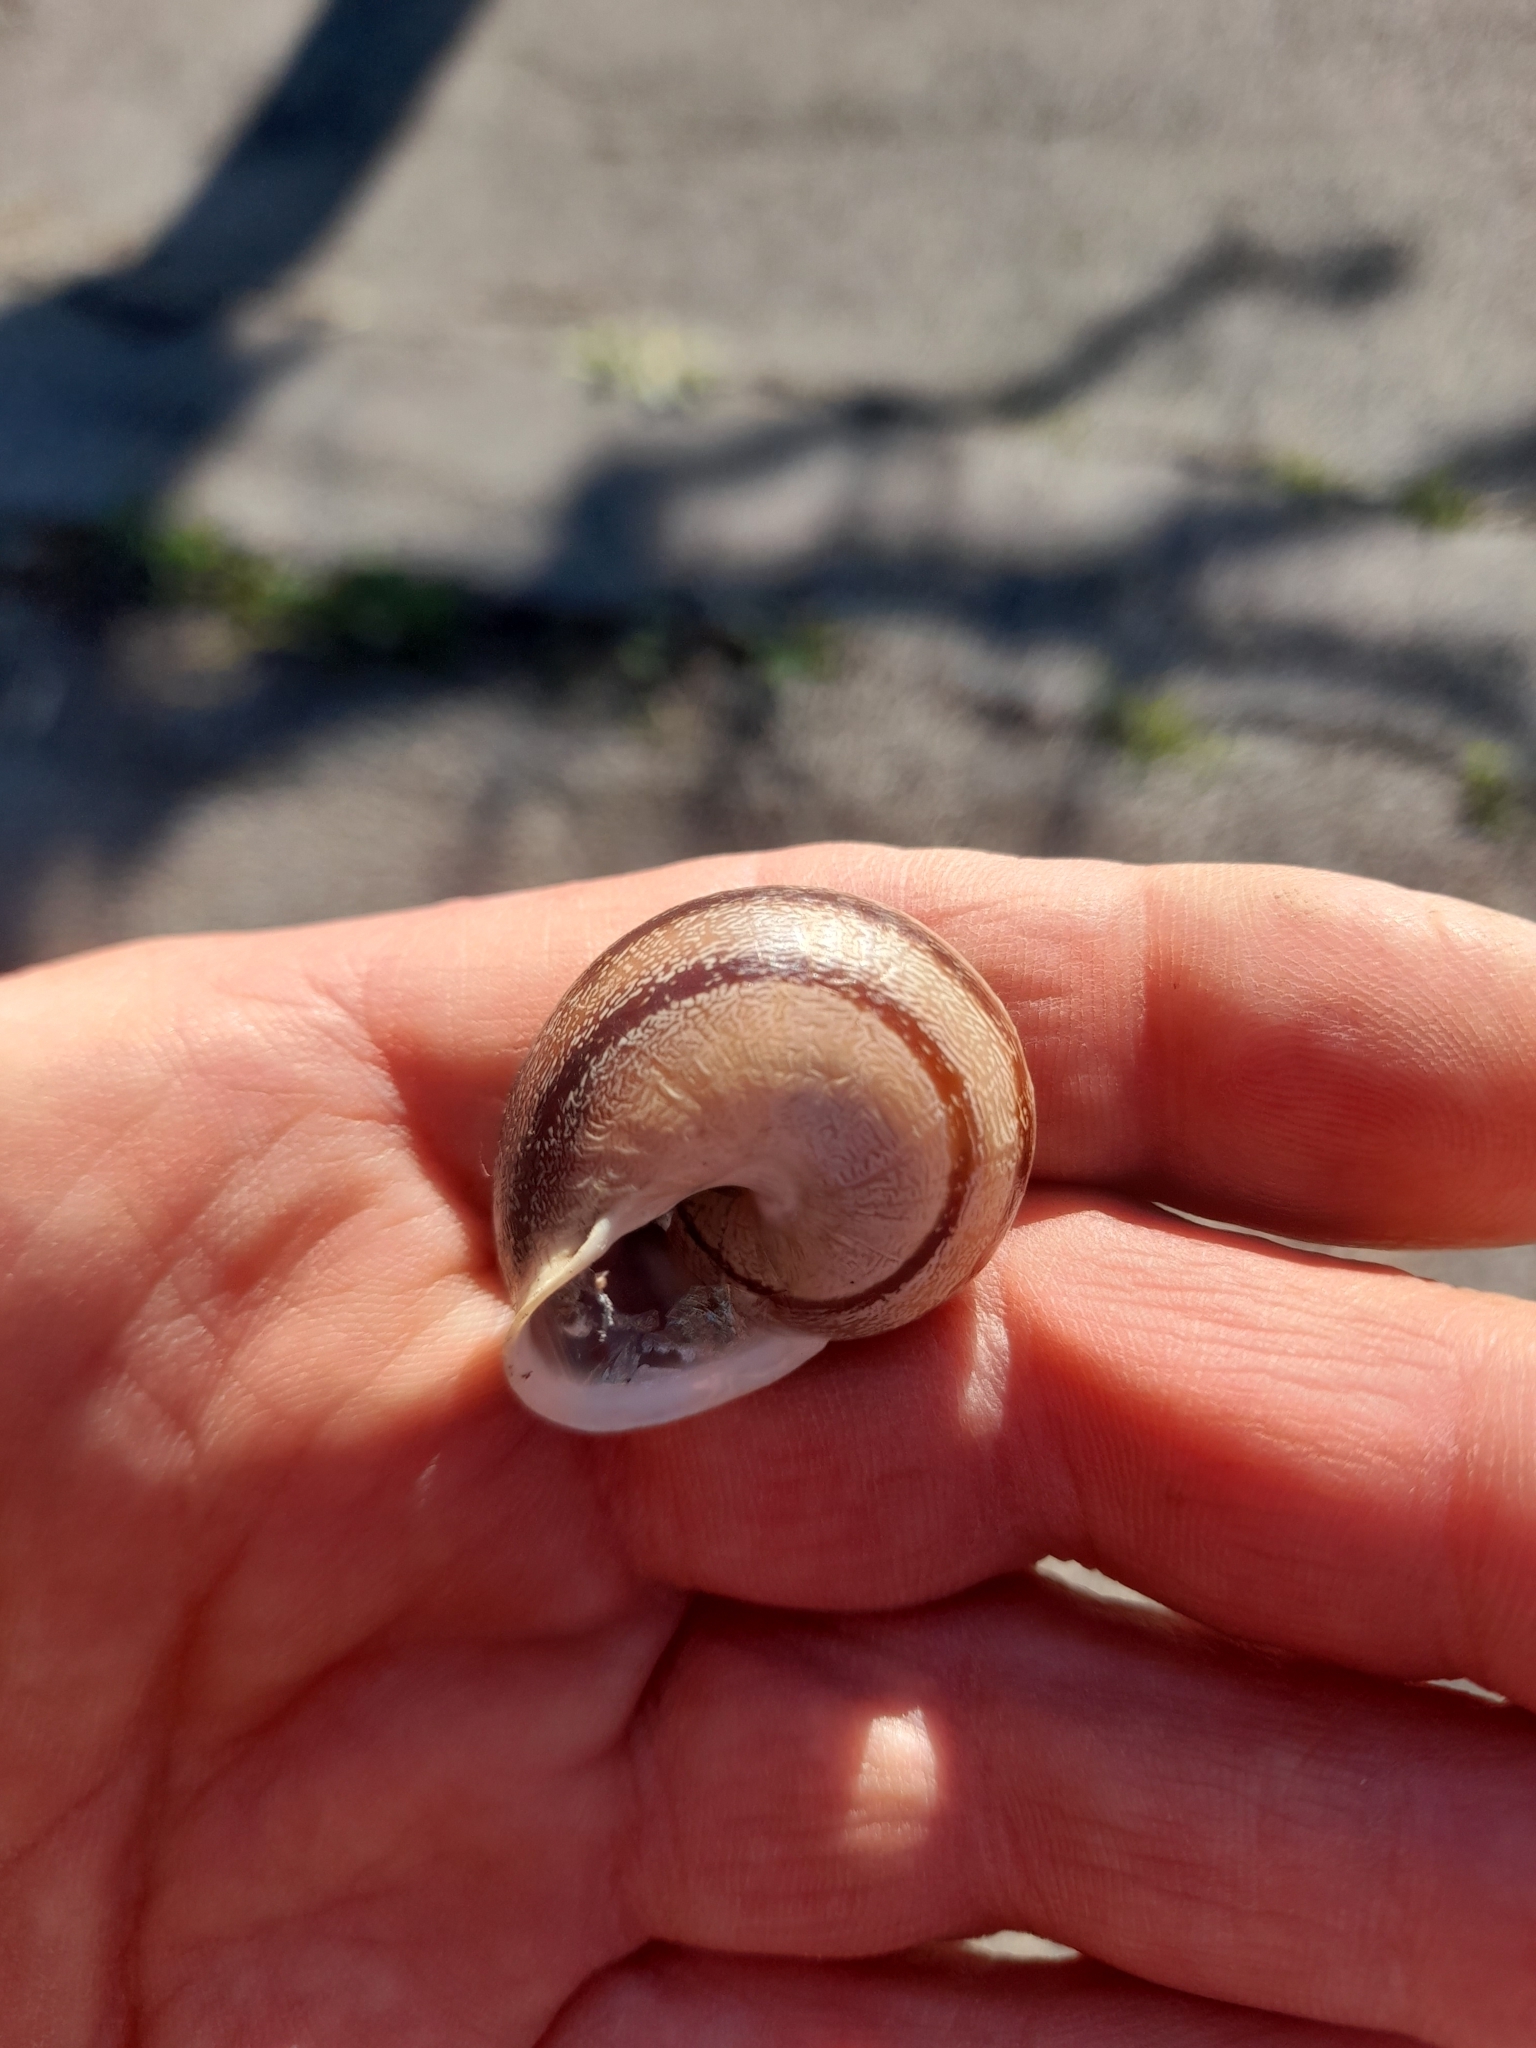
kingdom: Animalia
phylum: Mollusca
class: Gastropoda
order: Stylommatophora
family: Helicidae
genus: Eobania
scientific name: Eobania vermiculata
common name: Chocolateband snail
